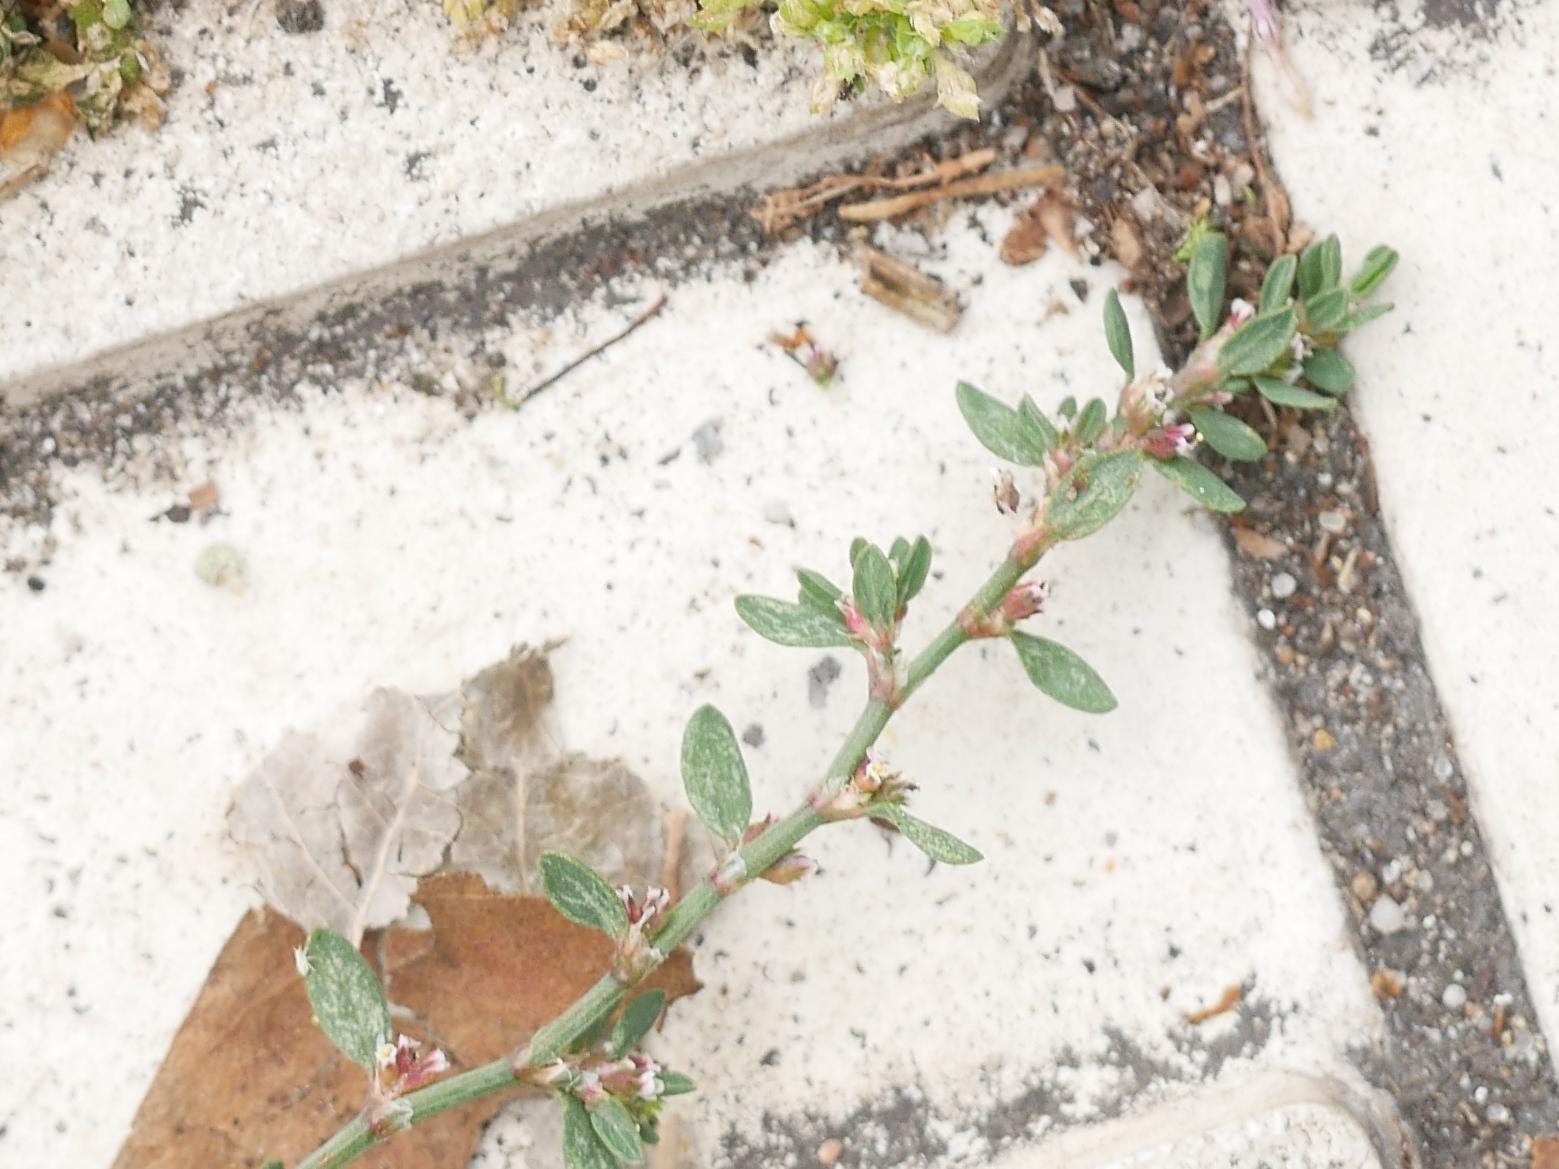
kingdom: Plantae
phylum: Tracheophyta
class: Magnoliopsida
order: Caryophyllales
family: Polygonaceae
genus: Polygonum
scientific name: Polygonum aviculare
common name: Prostrate knotweed
